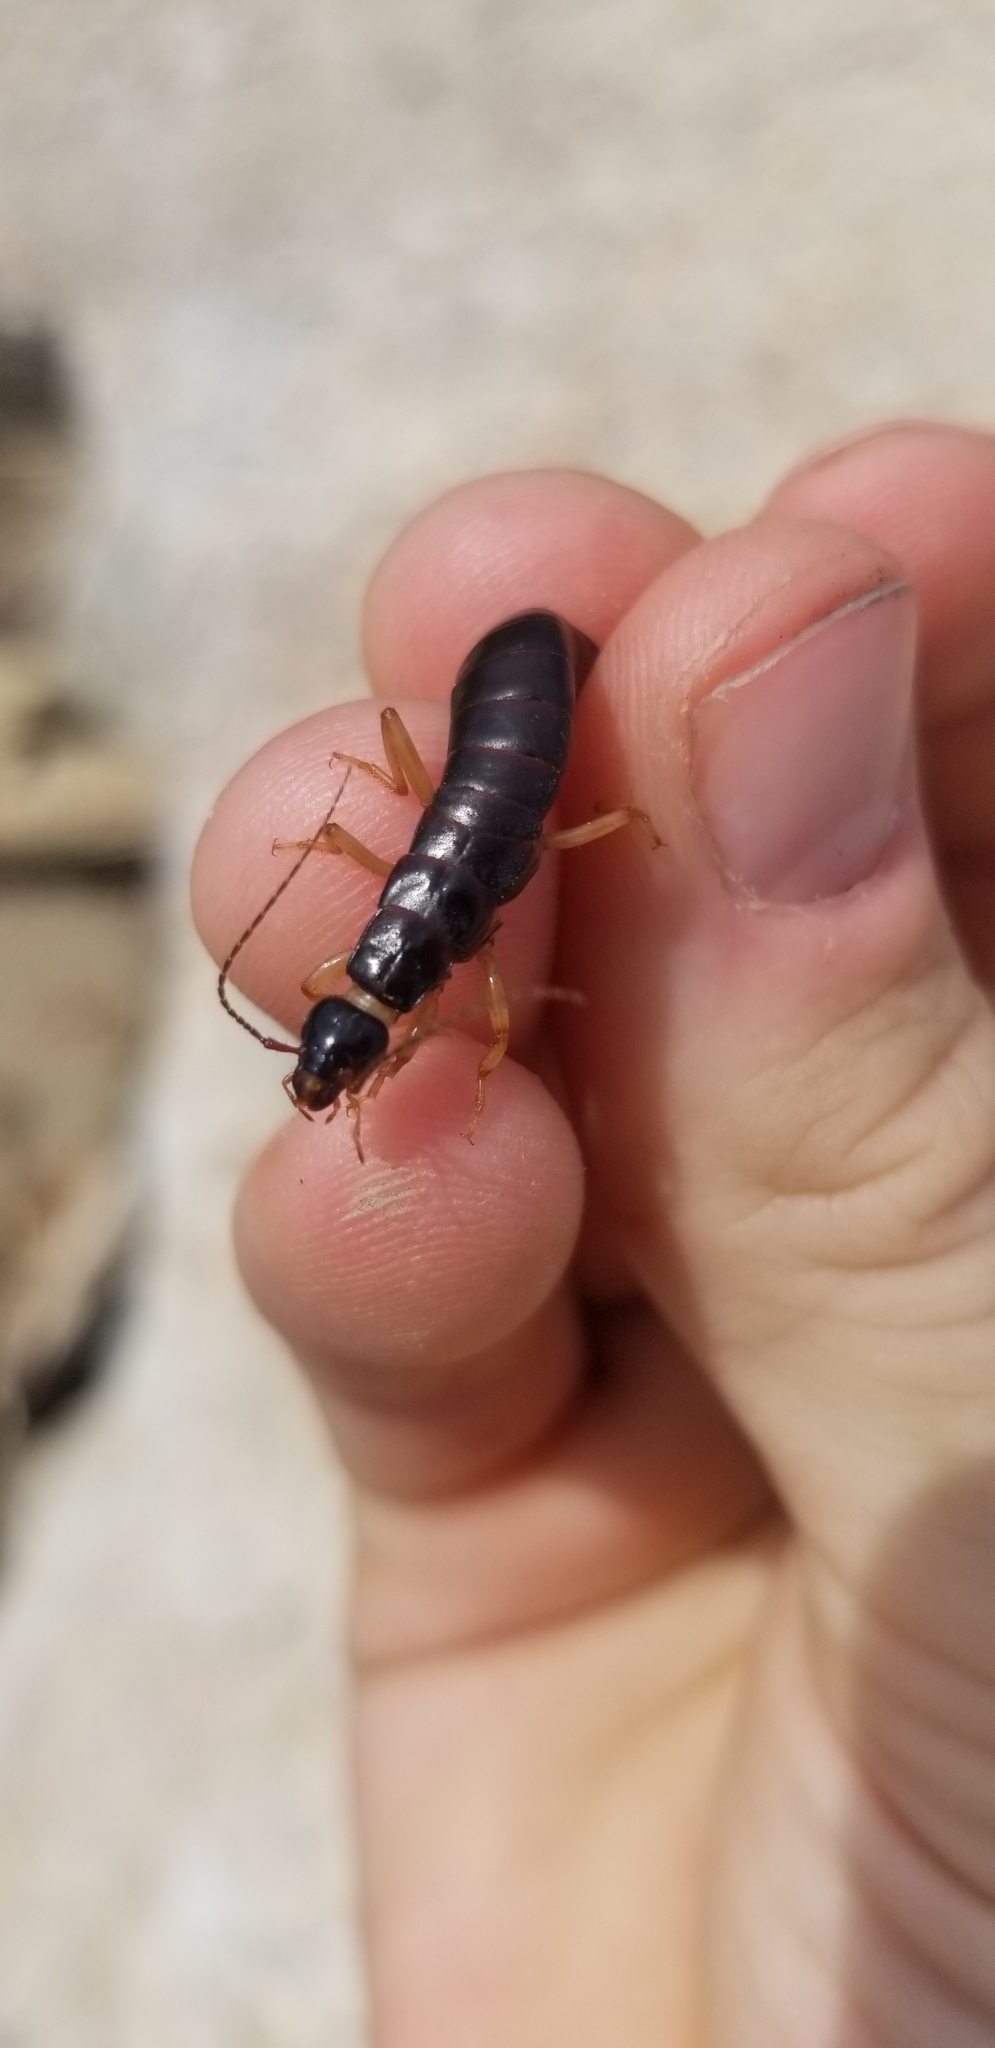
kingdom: Animalia
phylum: Arthropoda
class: Insecta
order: Dermaptera
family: Anisolabididae
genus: Anisolabis
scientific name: Anisolabis maritima
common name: Maritime earwig
